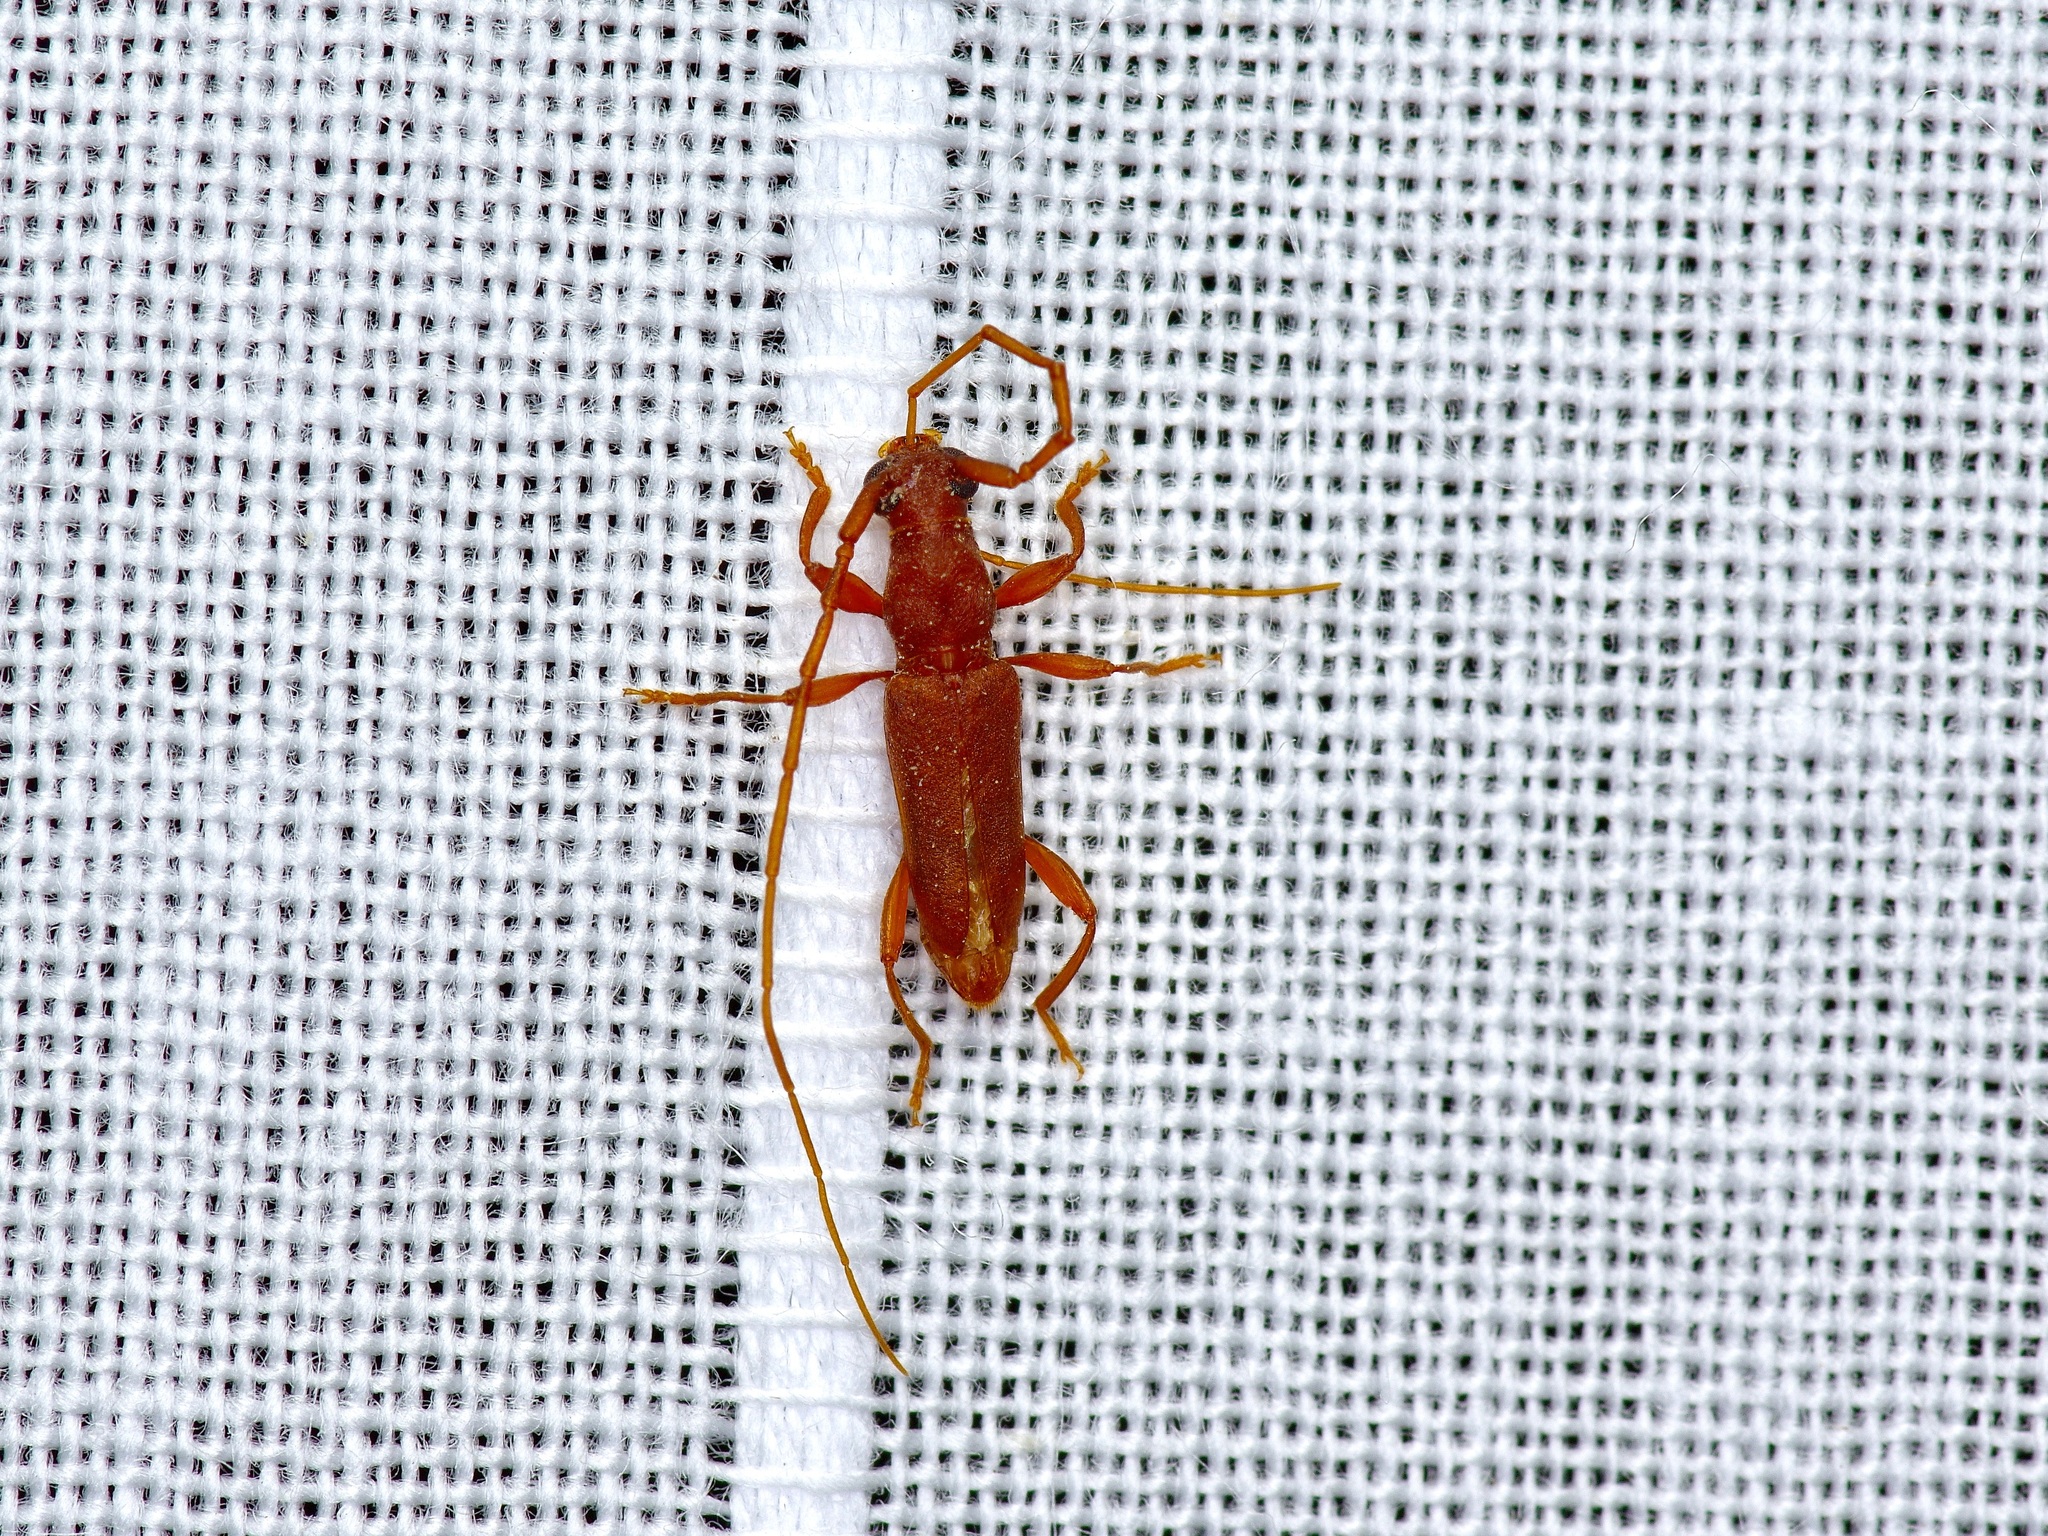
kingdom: Animalia
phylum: Arthropoda
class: Insecta
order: Coleoptera
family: Cerambycidae
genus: Hypexilis
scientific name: Hypexilis pallida
